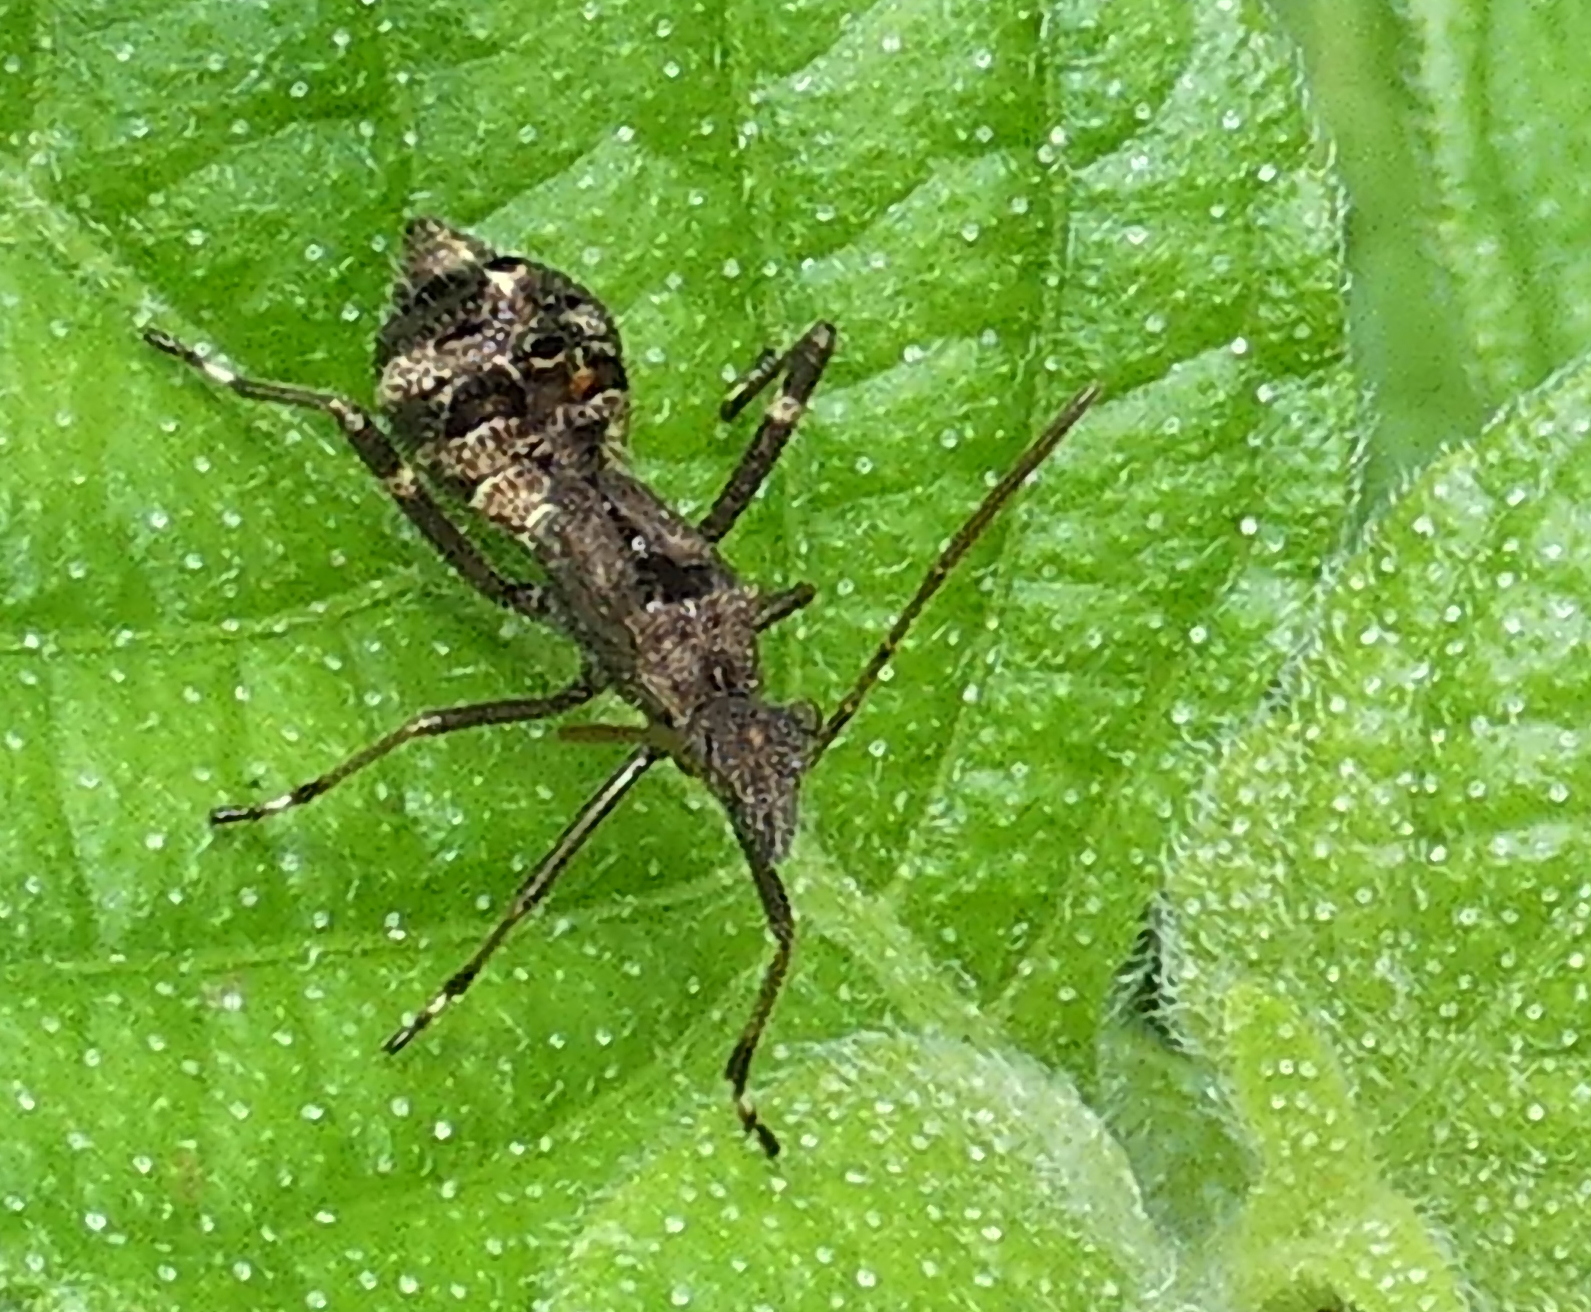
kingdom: Animalia
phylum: Arthropoda
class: Insecta
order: Hemiptera
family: Alydidae
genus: Neomegalotomus
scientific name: Neomegalotomus parvus
